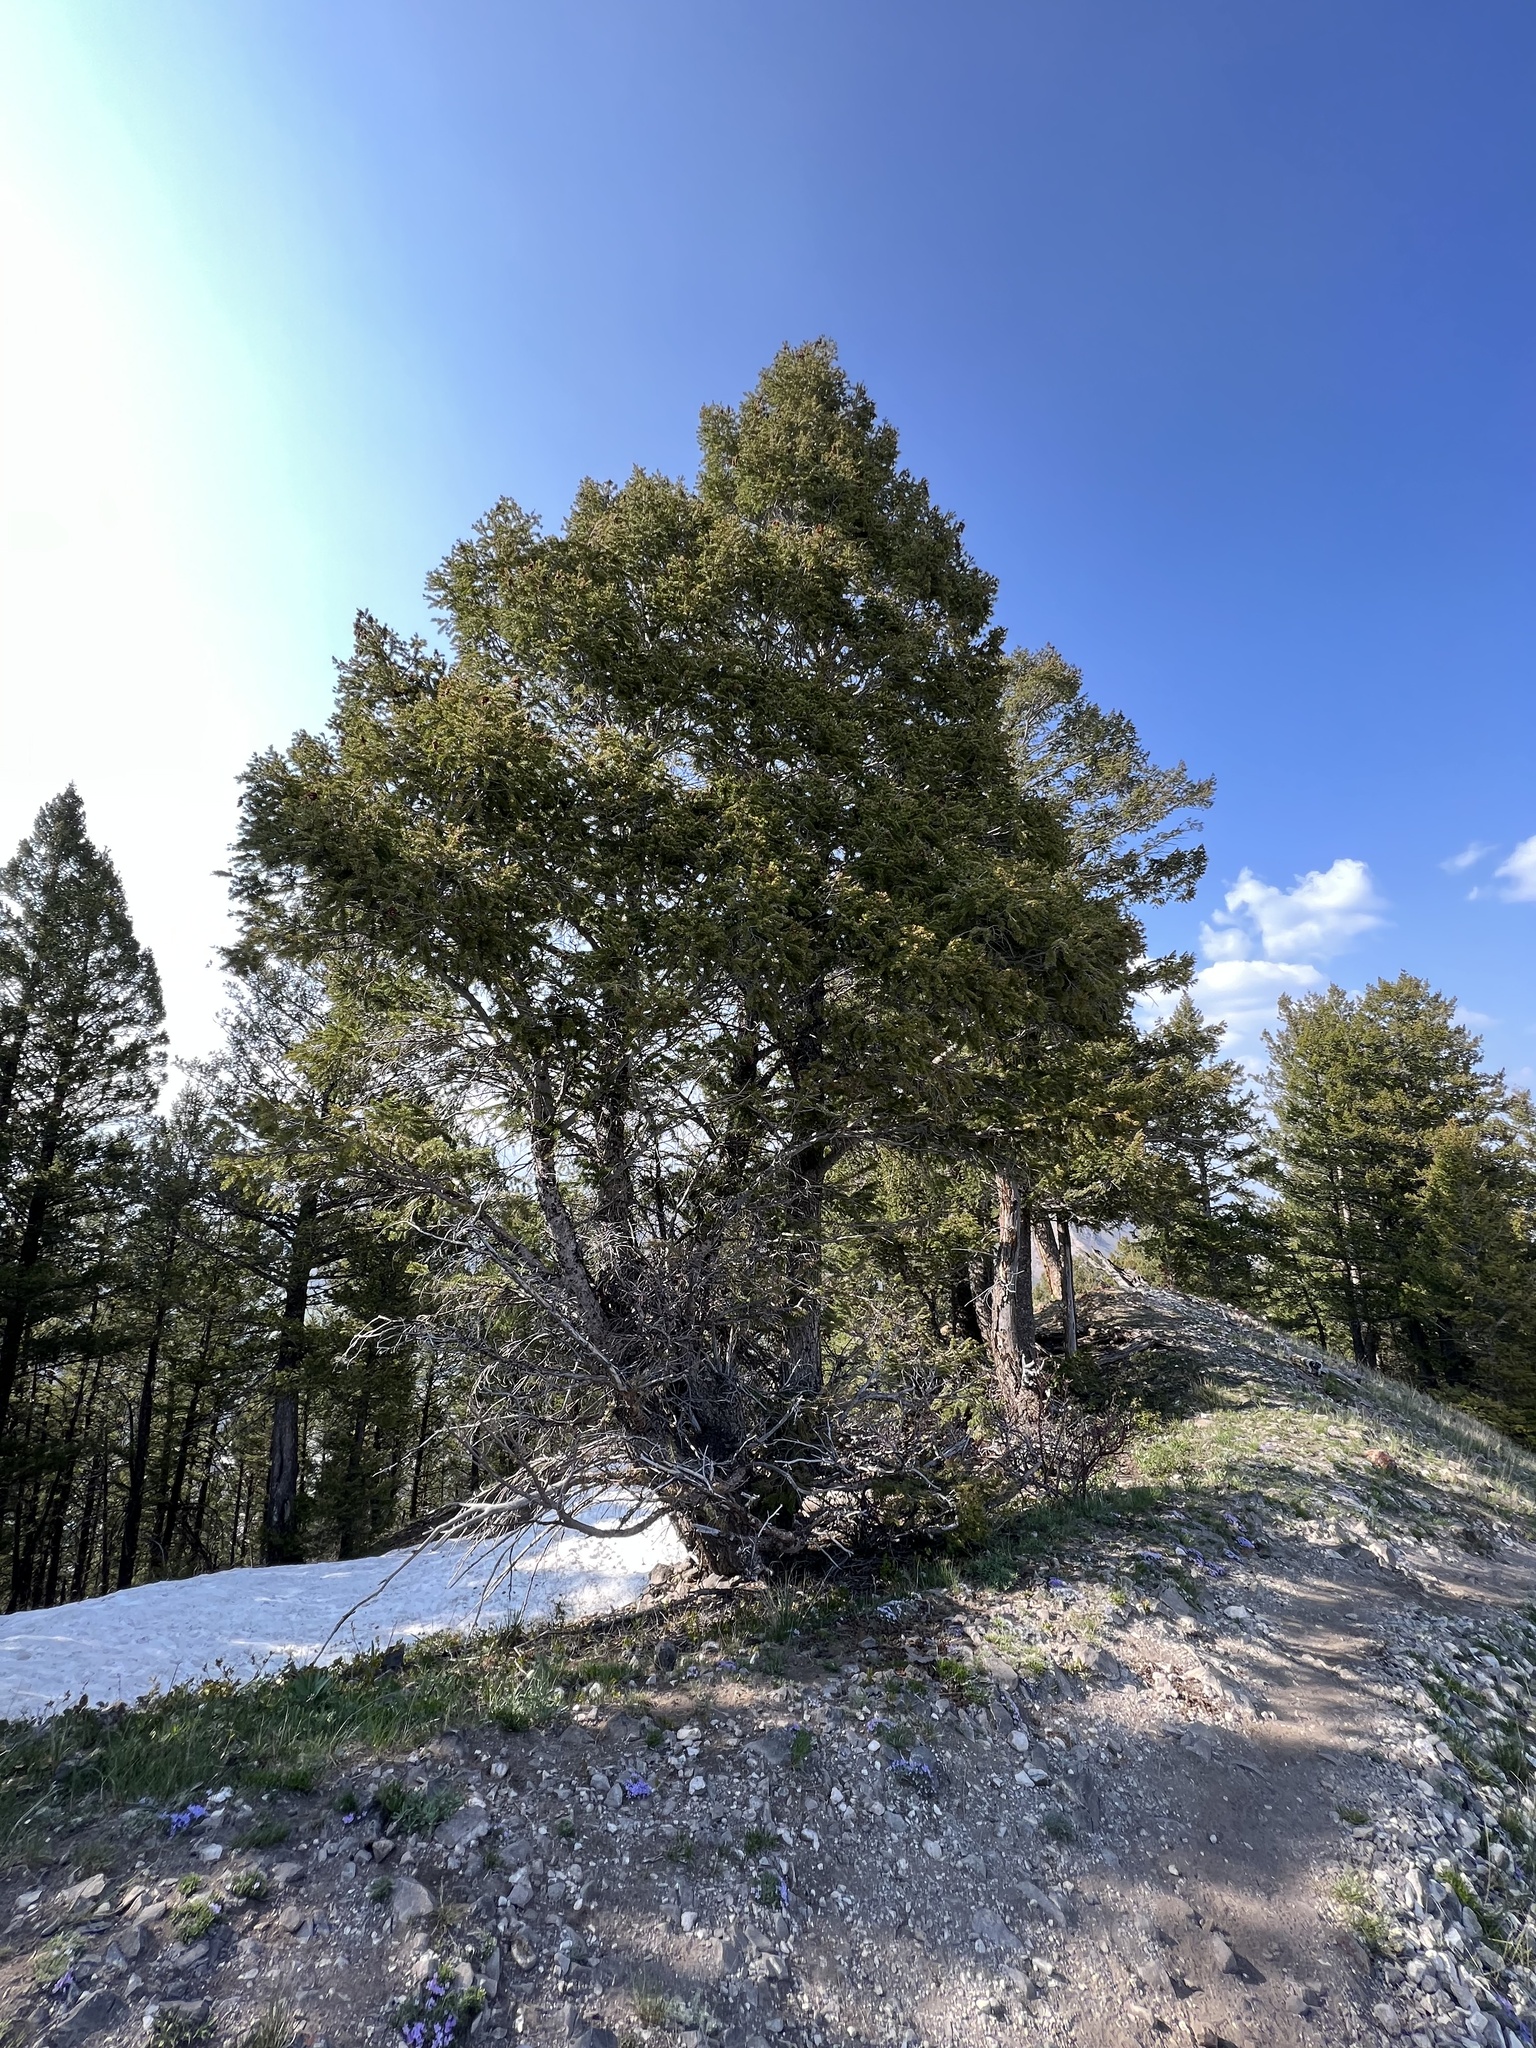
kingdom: Plantae
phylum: Tracheophyta
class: Pinopsida
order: Pinales
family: Pinaceae
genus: Pseudotsuga
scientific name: Pseudotsuga menziesii
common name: Douglas fir
